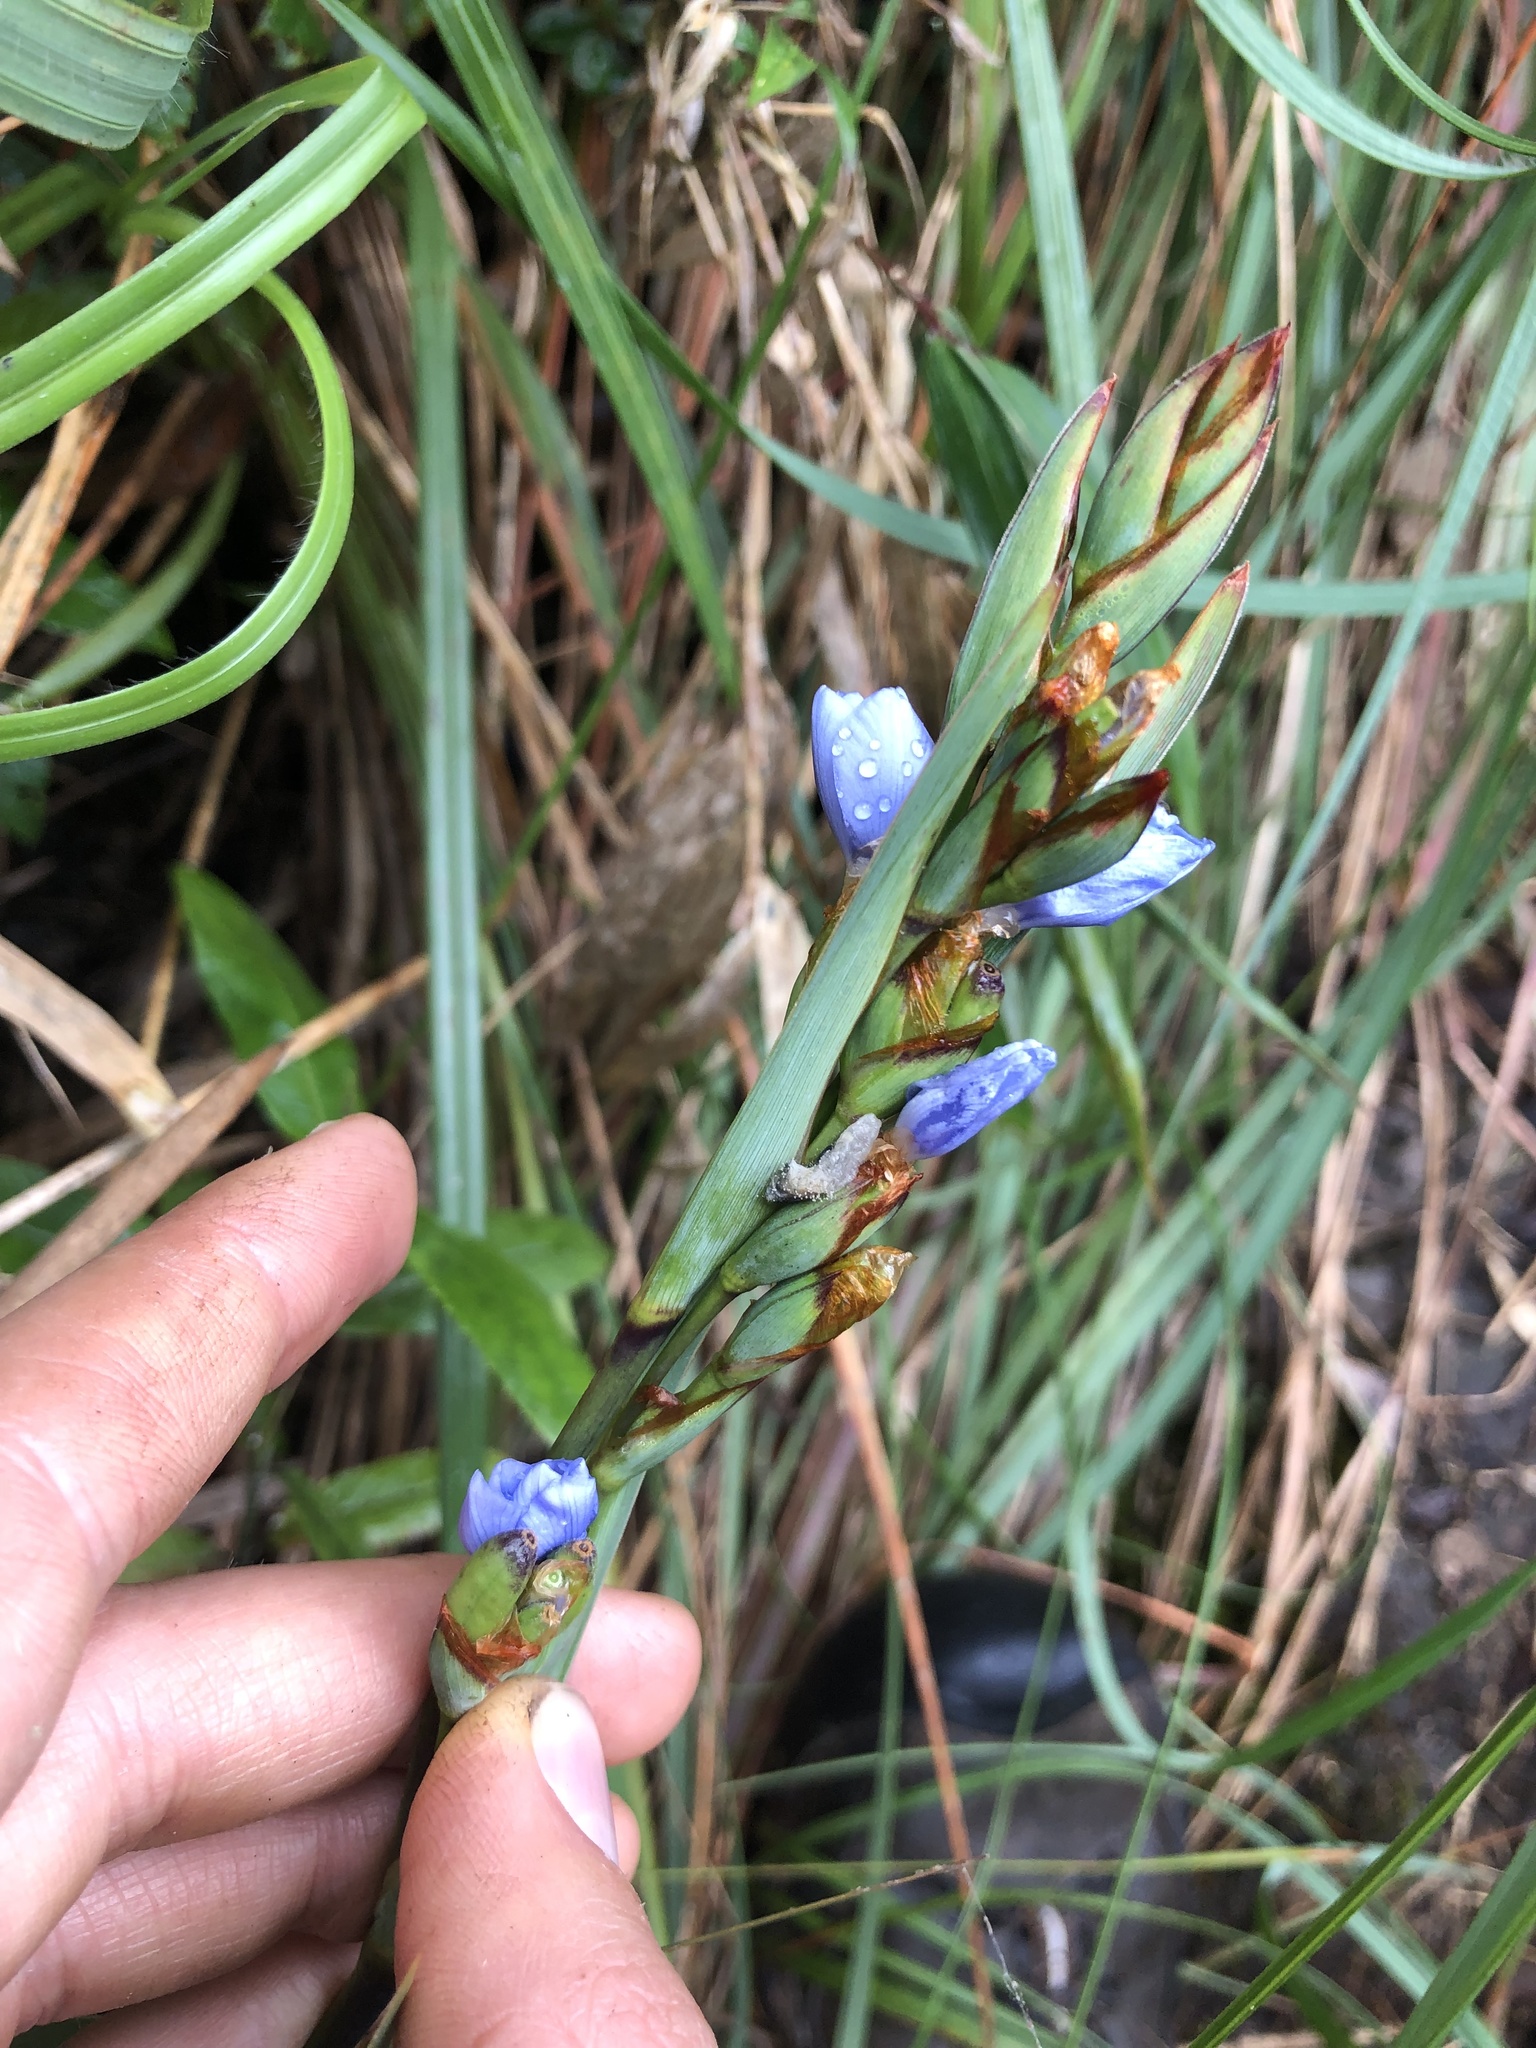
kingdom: Plantae
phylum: Tracheophyta
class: Liliopsida
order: Asparagales
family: Iridaceae
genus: Orthrosanthus
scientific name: Orthrosanthus chimboracensis
